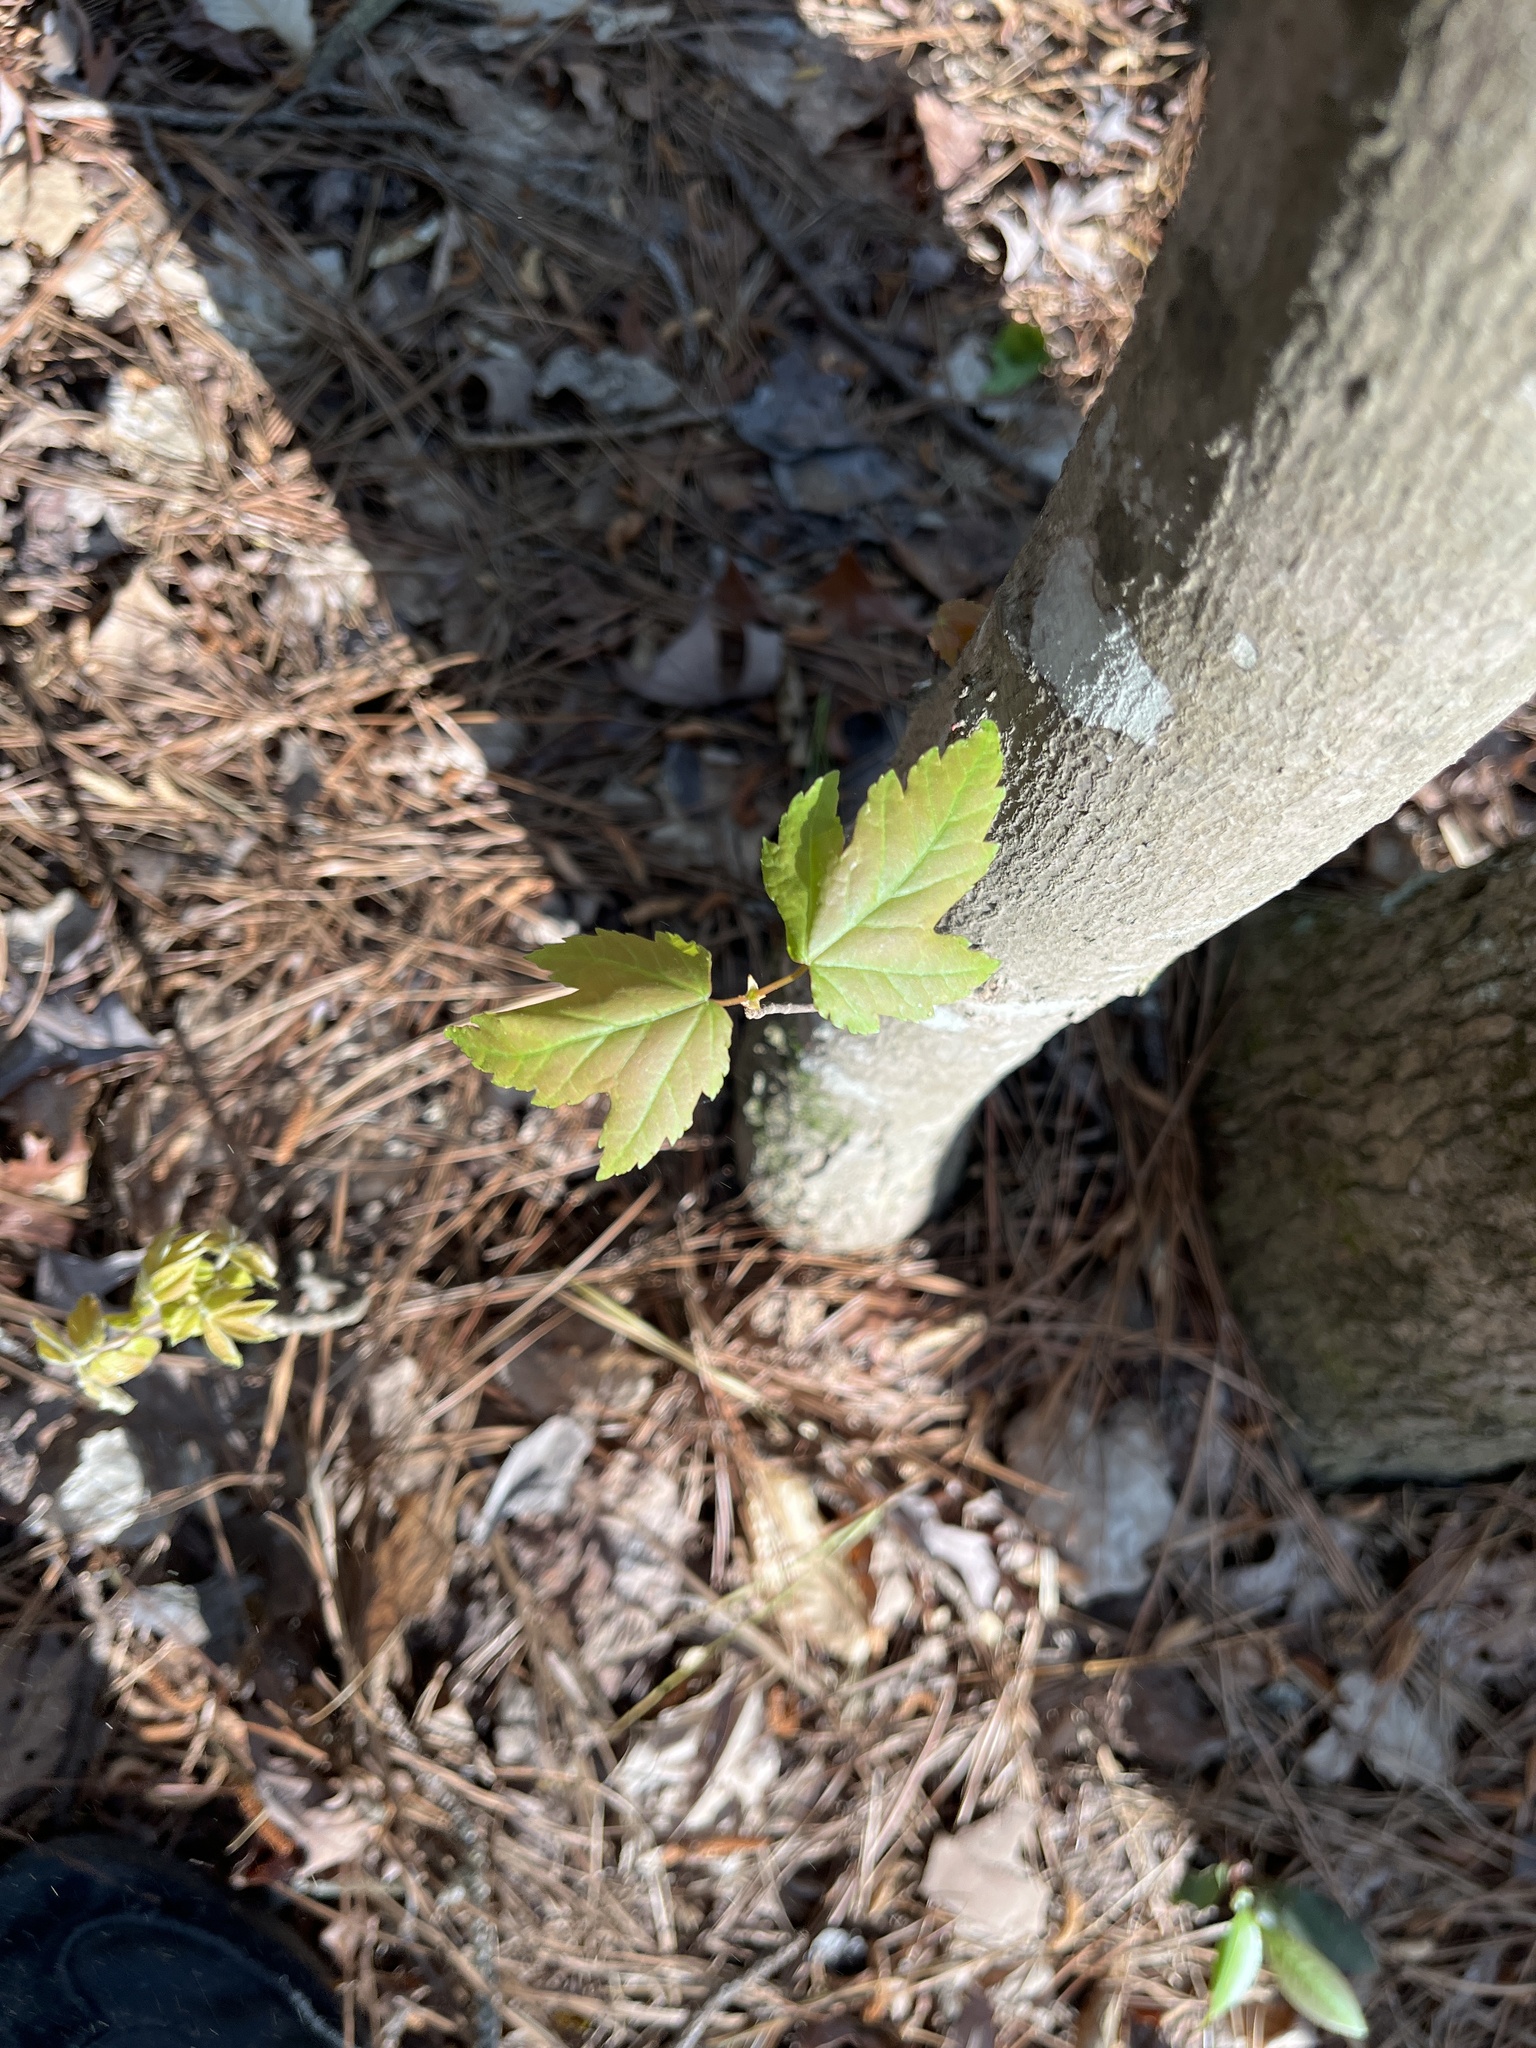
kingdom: Plantae
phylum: Tracheophyta
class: Magnoliopsida
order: Sapindales
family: Sapindaceae
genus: Acer
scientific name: Acer rubrum
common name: Red maple
